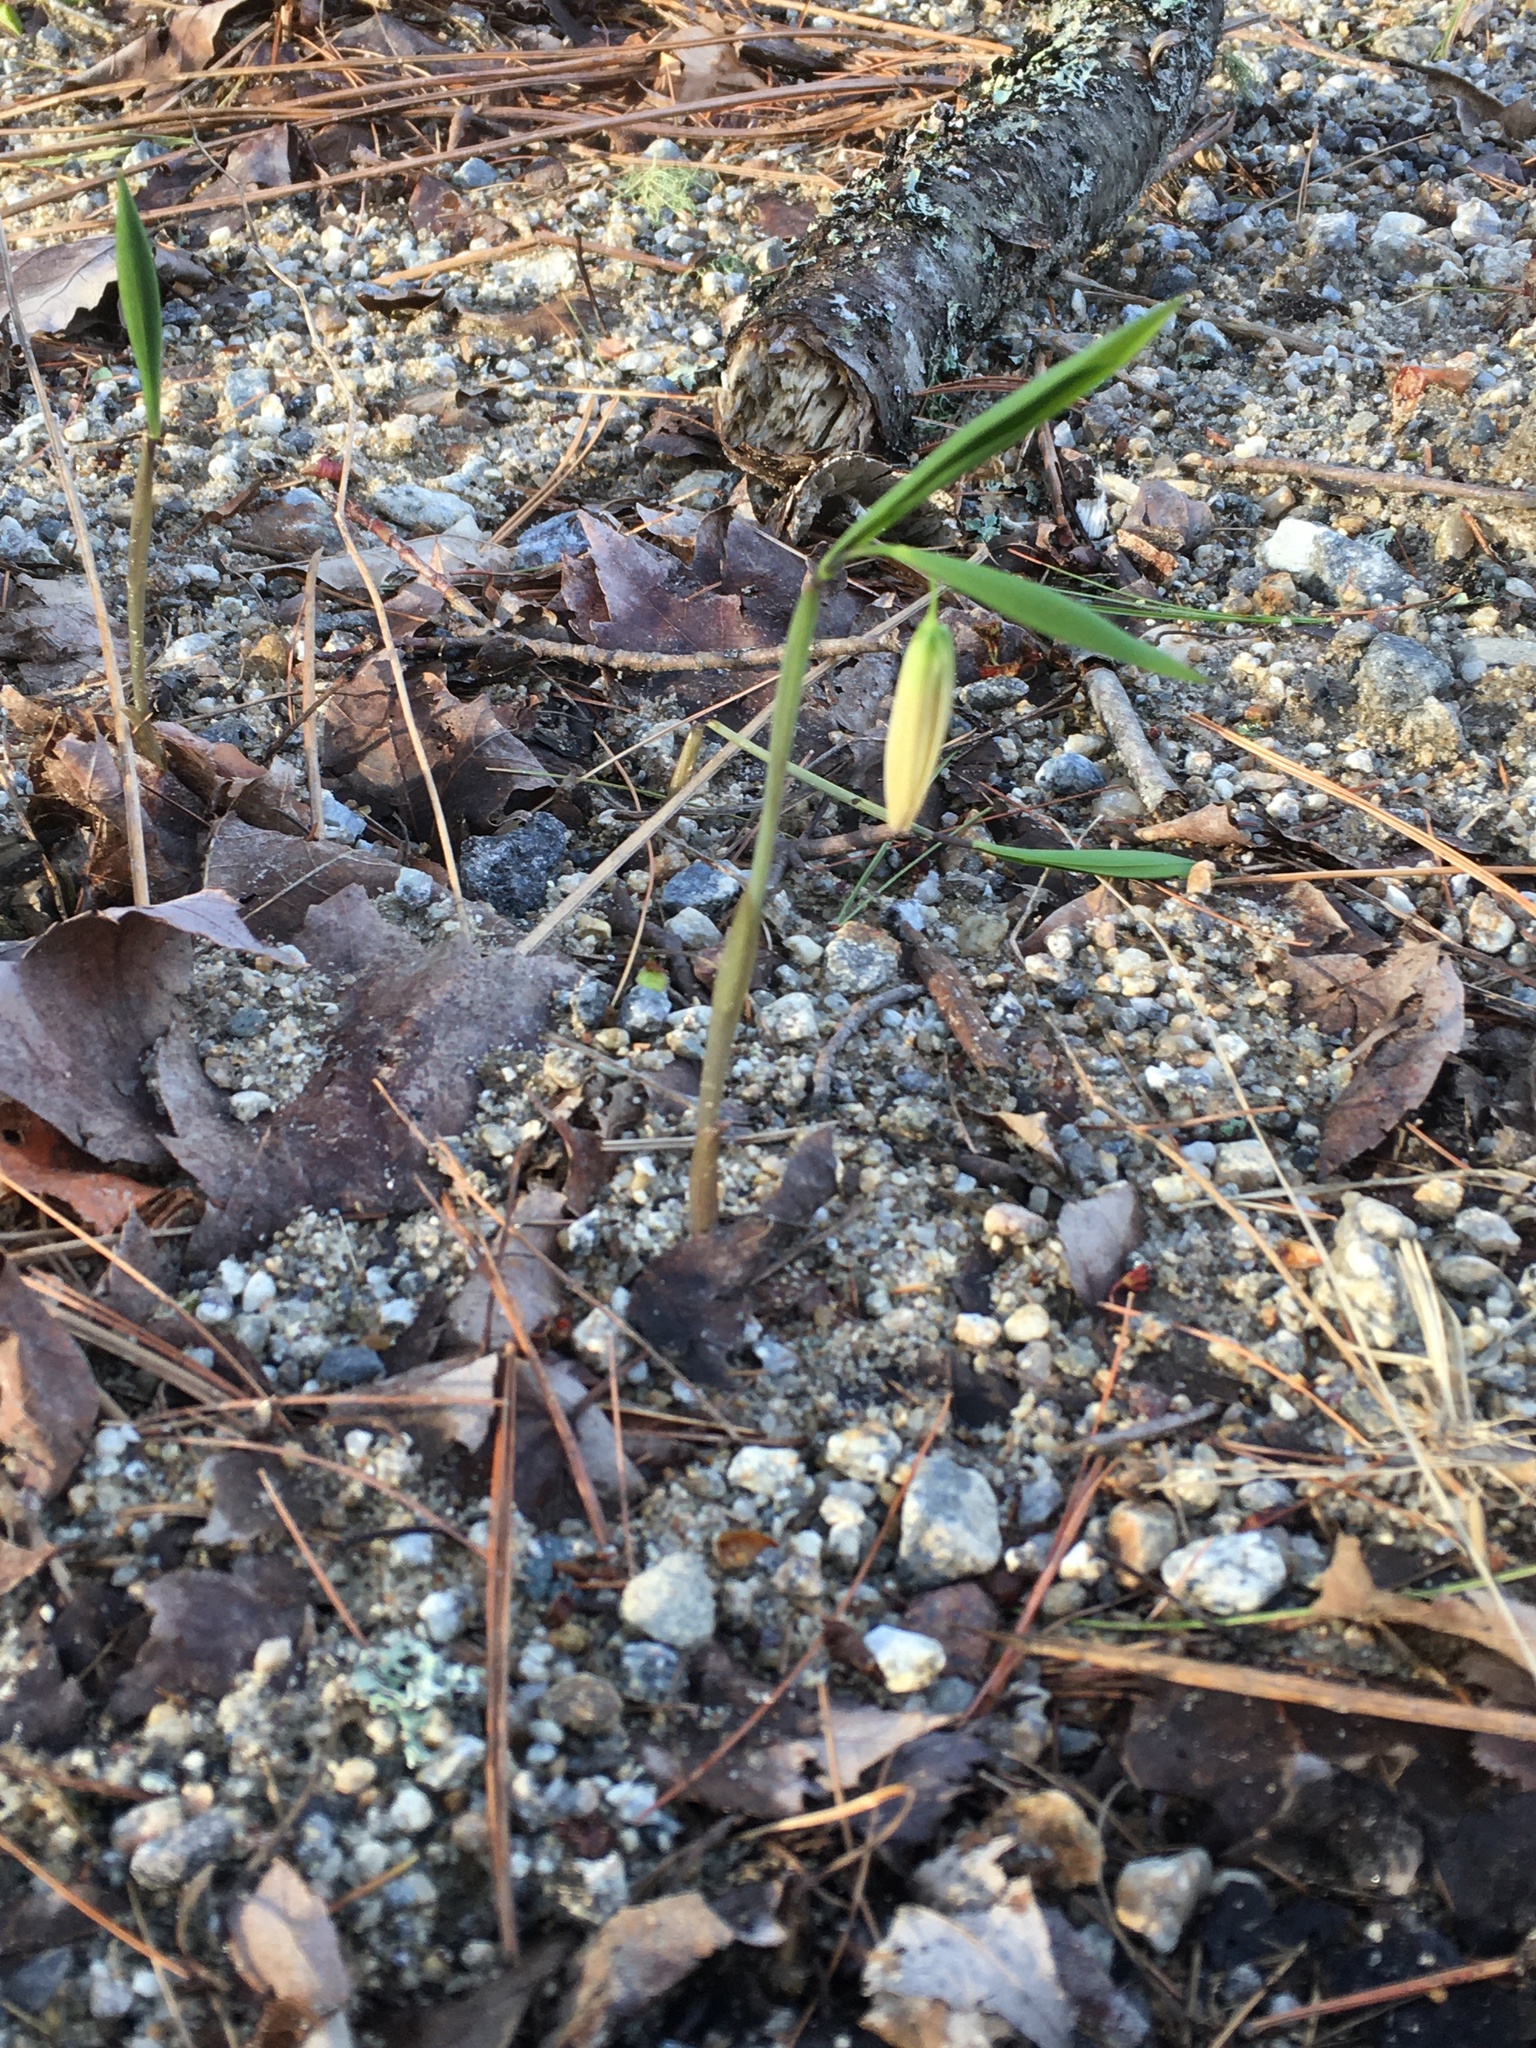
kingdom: Plantae
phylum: Tracheophyta
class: Liliopsida
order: Liliales
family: Colchicaceae
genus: Uvularia
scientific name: Uvularia sessilifolia
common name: Straw-lily
